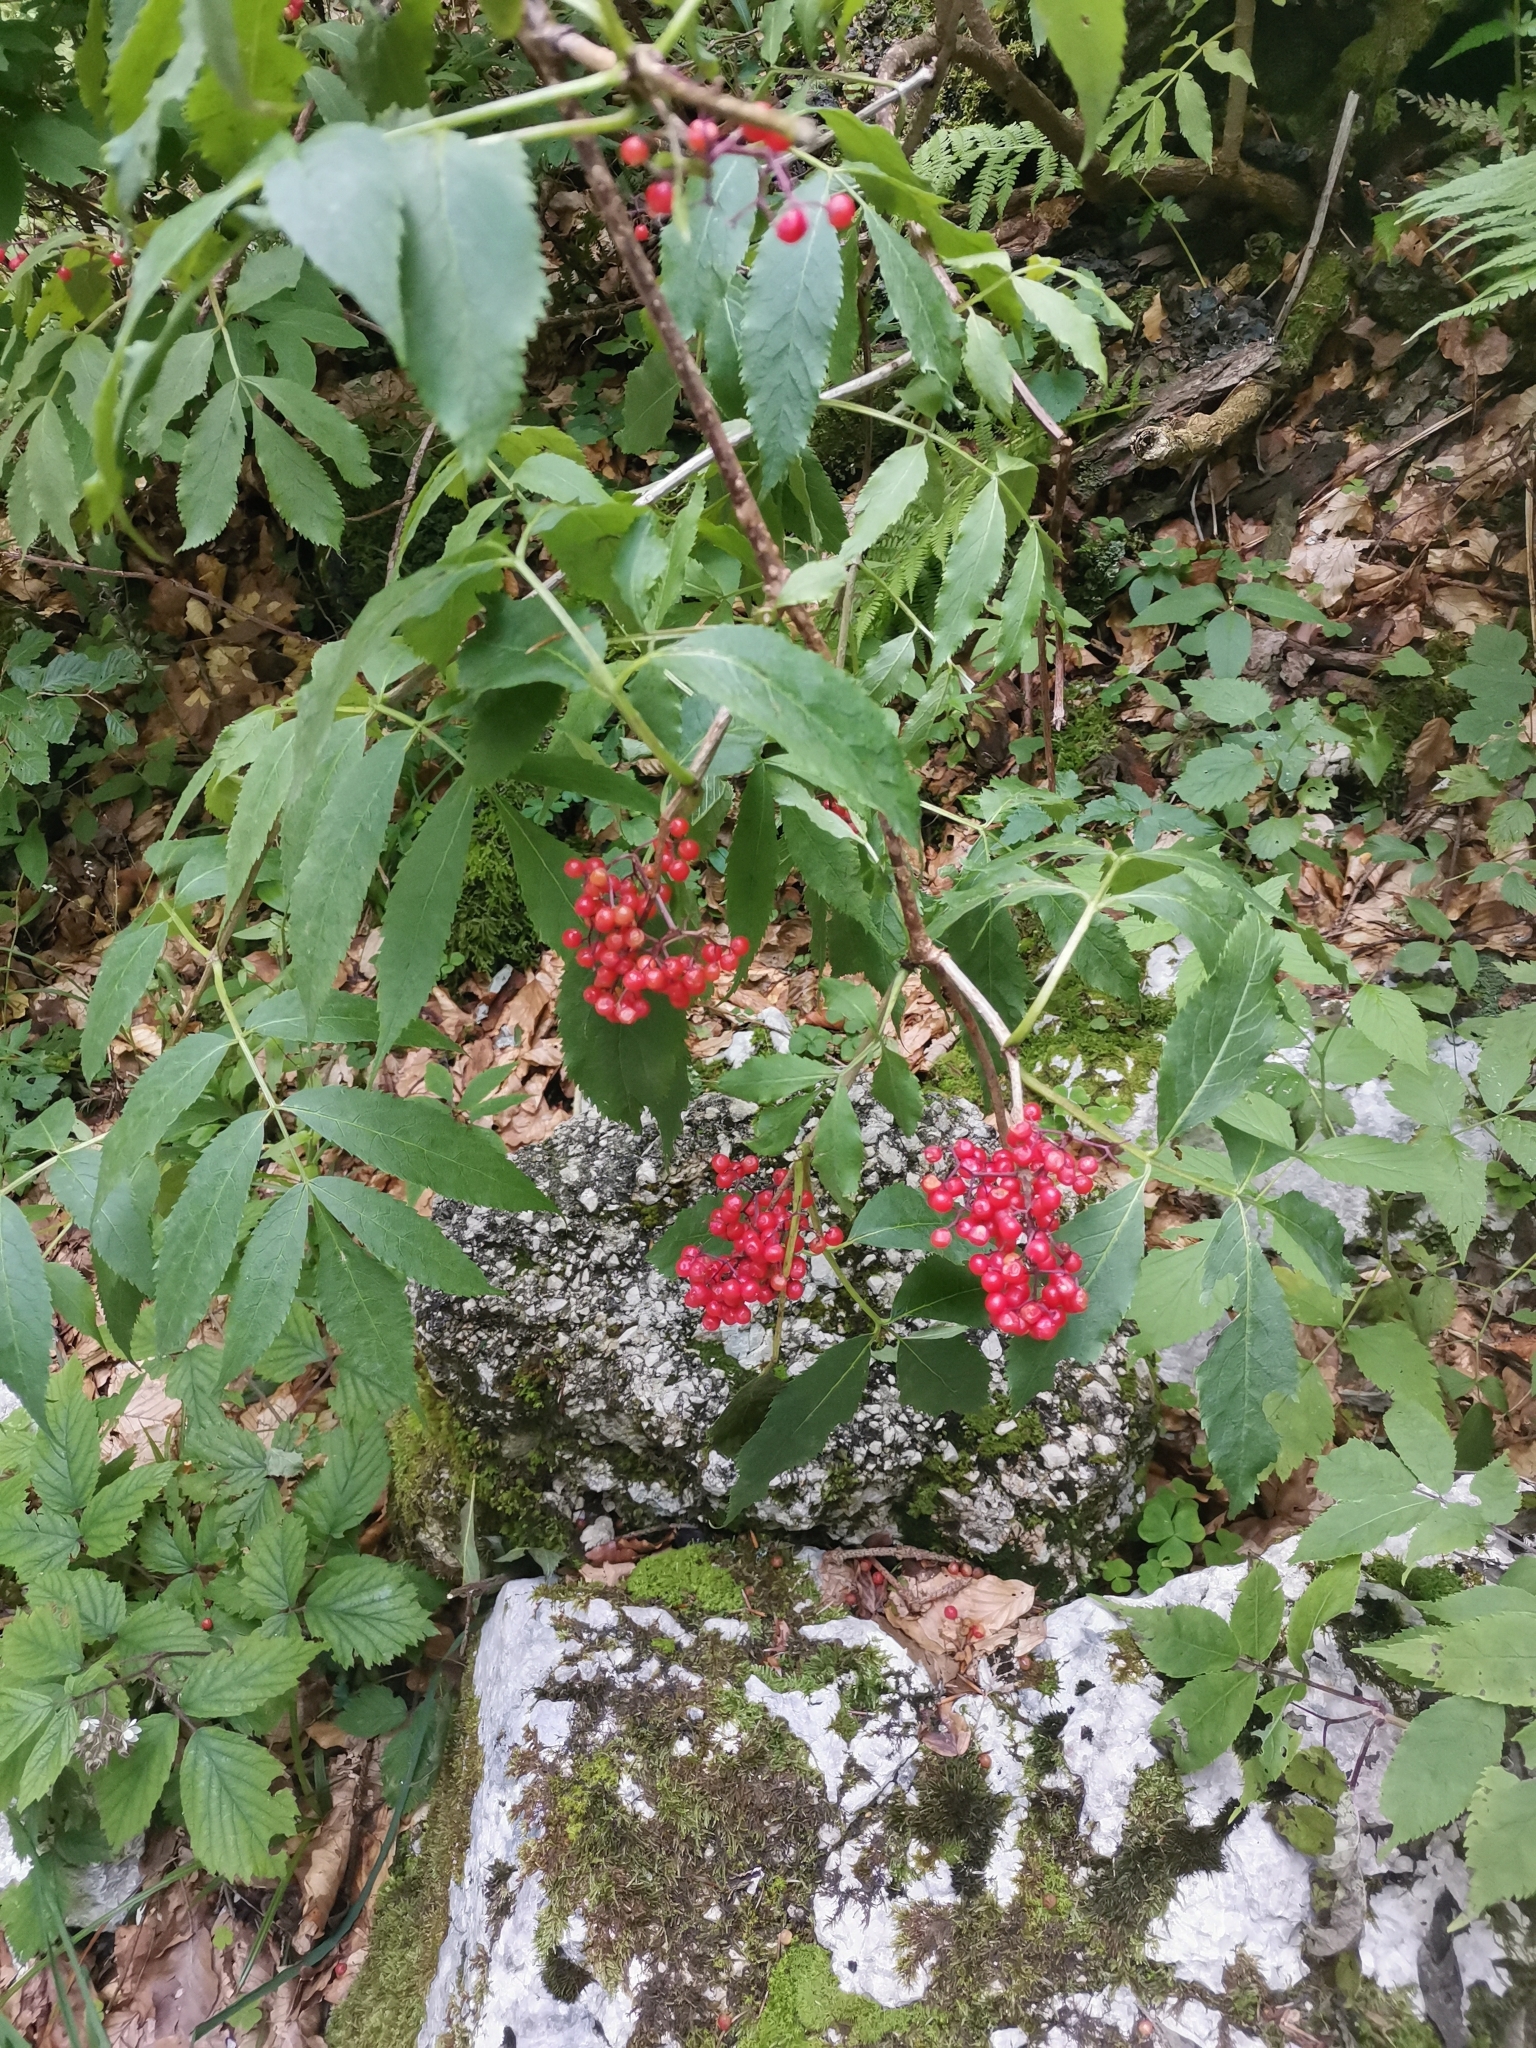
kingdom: Plantae
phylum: Tracheophyta
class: Magnoliopsida
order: Dipsacales
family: Viburnaceae
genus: Sambucus
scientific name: Sambucus racemosa
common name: Red-berried elder
